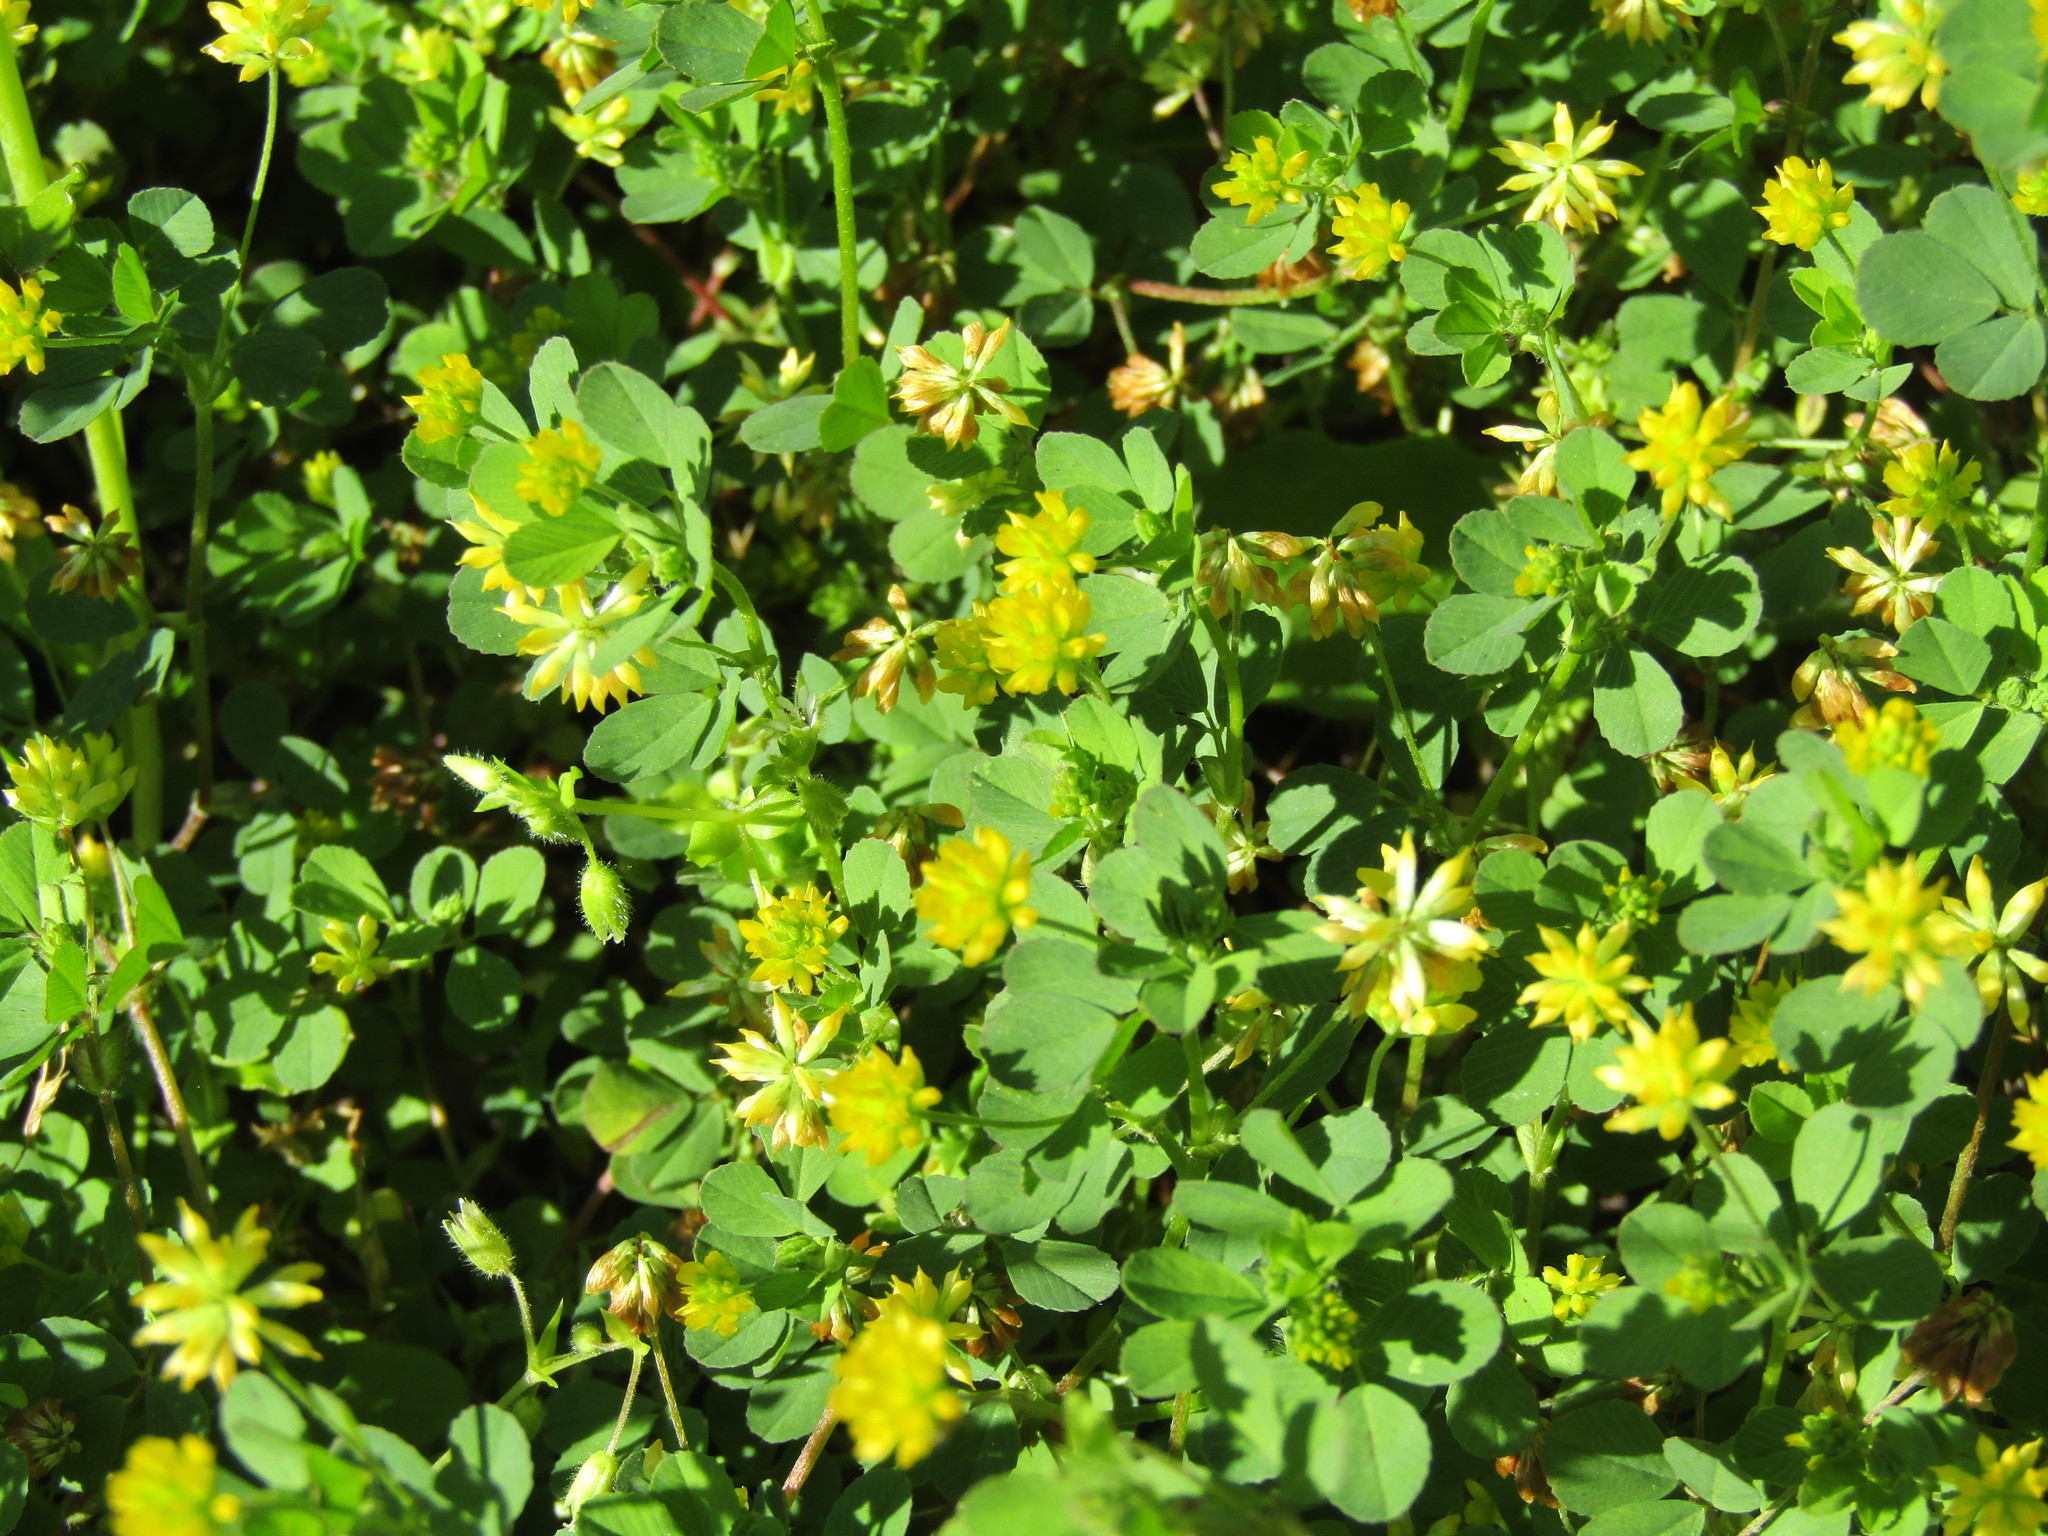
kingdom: Plantae
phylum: Tracheophyta
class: Magnoliopsida
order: Fabales
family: Fabaceae
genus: Trifolium
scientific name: Trifolium dubium
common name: Suckling clover
